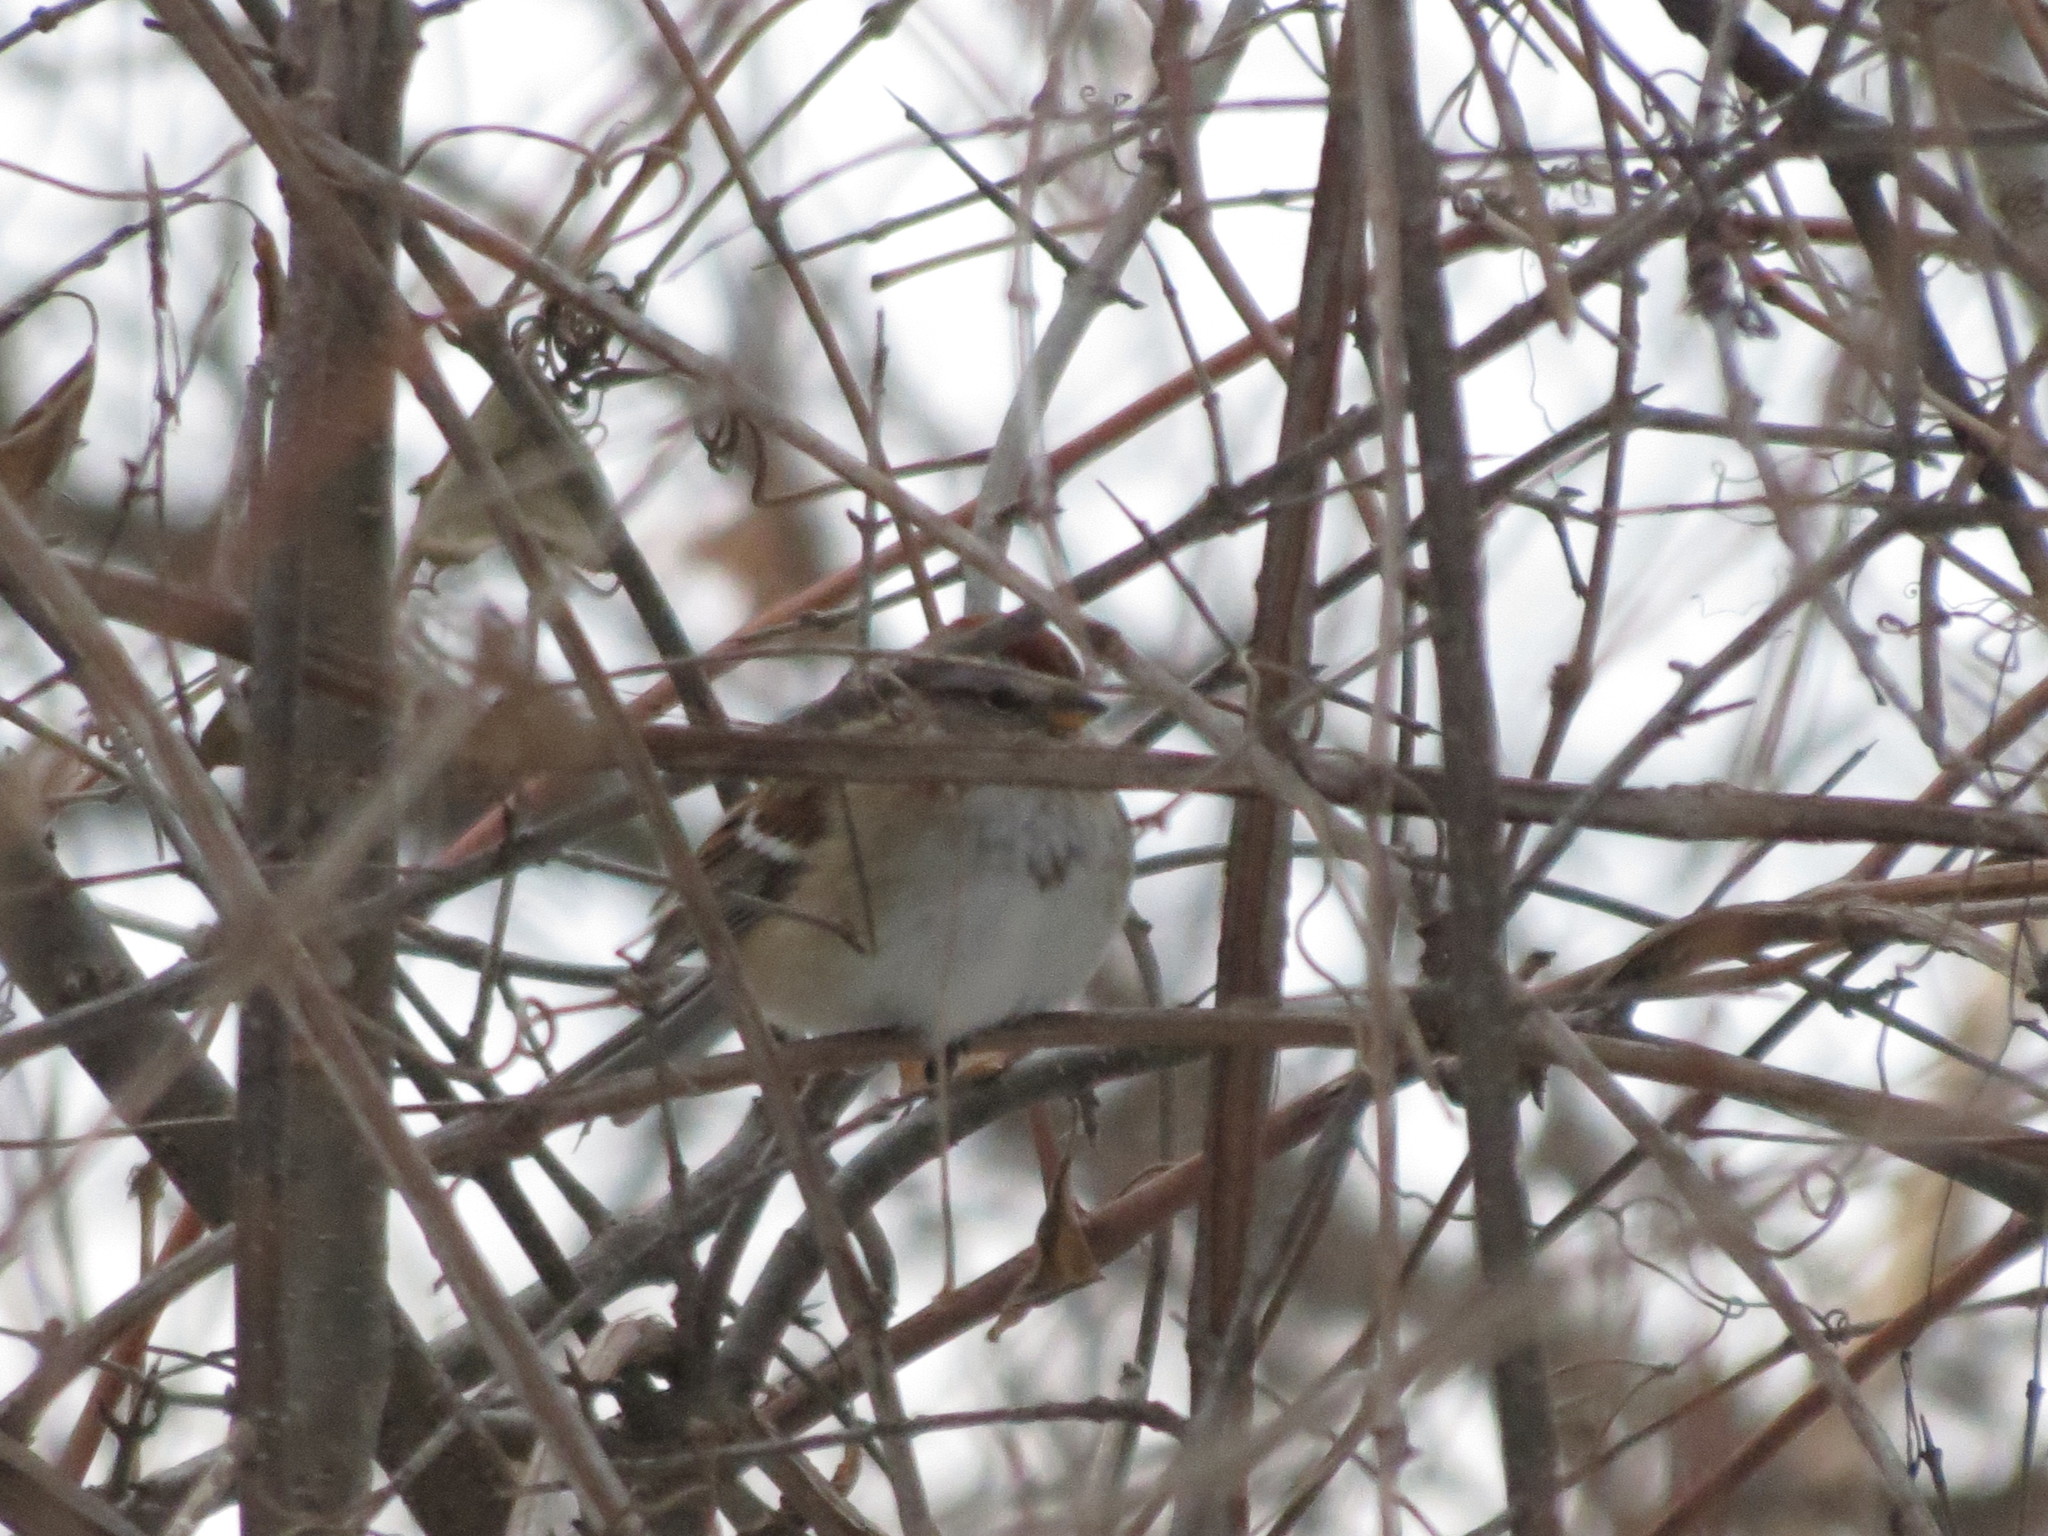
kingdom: Animalia
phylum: Chordata
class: Aves
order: Passeriformes
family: Passerellidae
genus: Spizelloides
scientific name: Spizelloides arborea
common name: American tree sparrow
